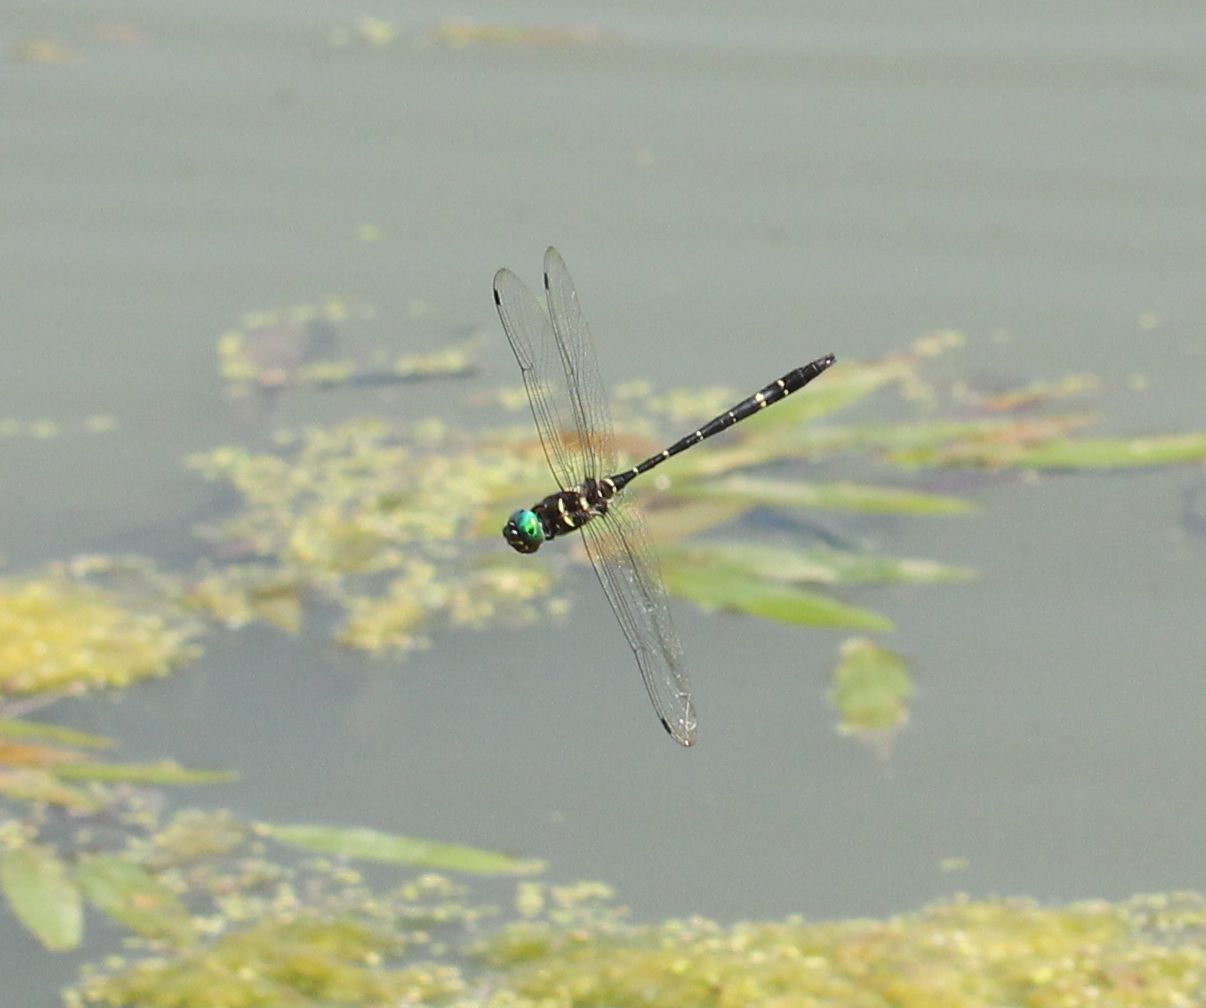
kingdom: Animalia
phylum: Arthropoda
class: Insecta
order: Odonata
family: Macromiidae
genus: Macromia
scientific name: Macromia taeniolata
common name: Royal river cruiser
